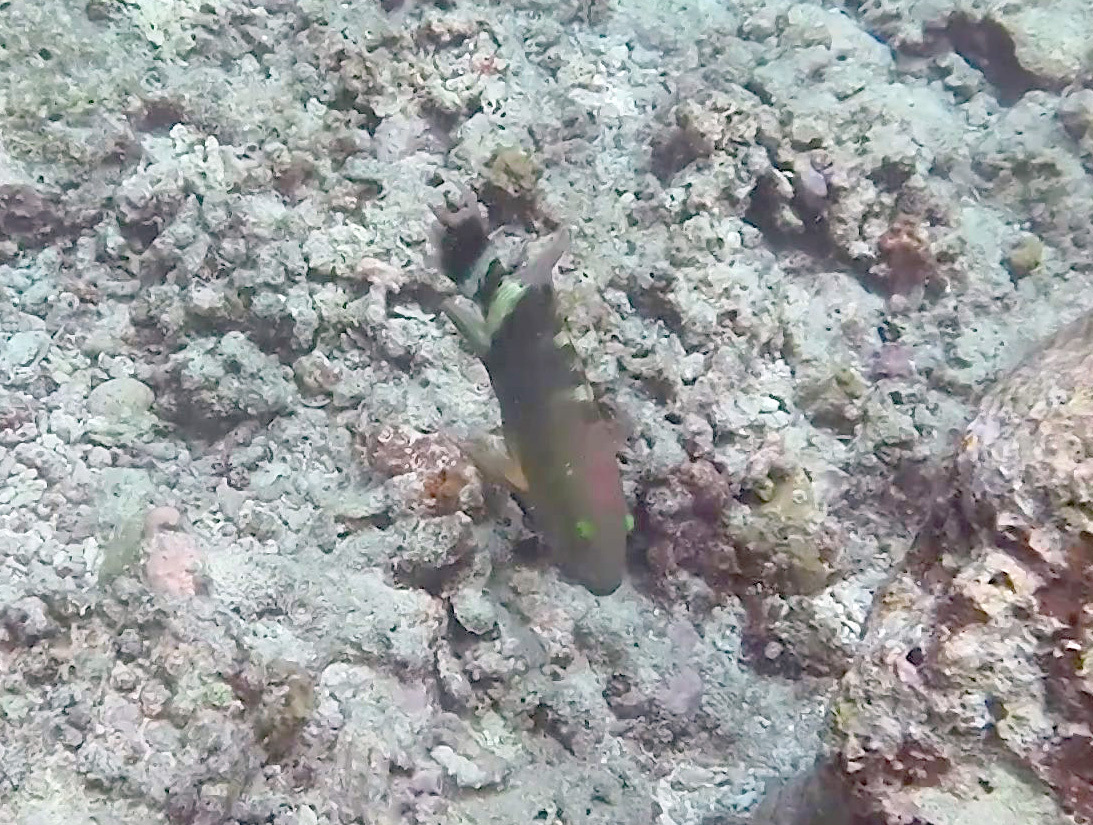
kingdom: Animalia
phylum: Chordata
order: Perciformes
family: Labridae
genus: Cheilinus
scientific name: Cheilinus trilobatus
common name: Tripletail maori wrasse
